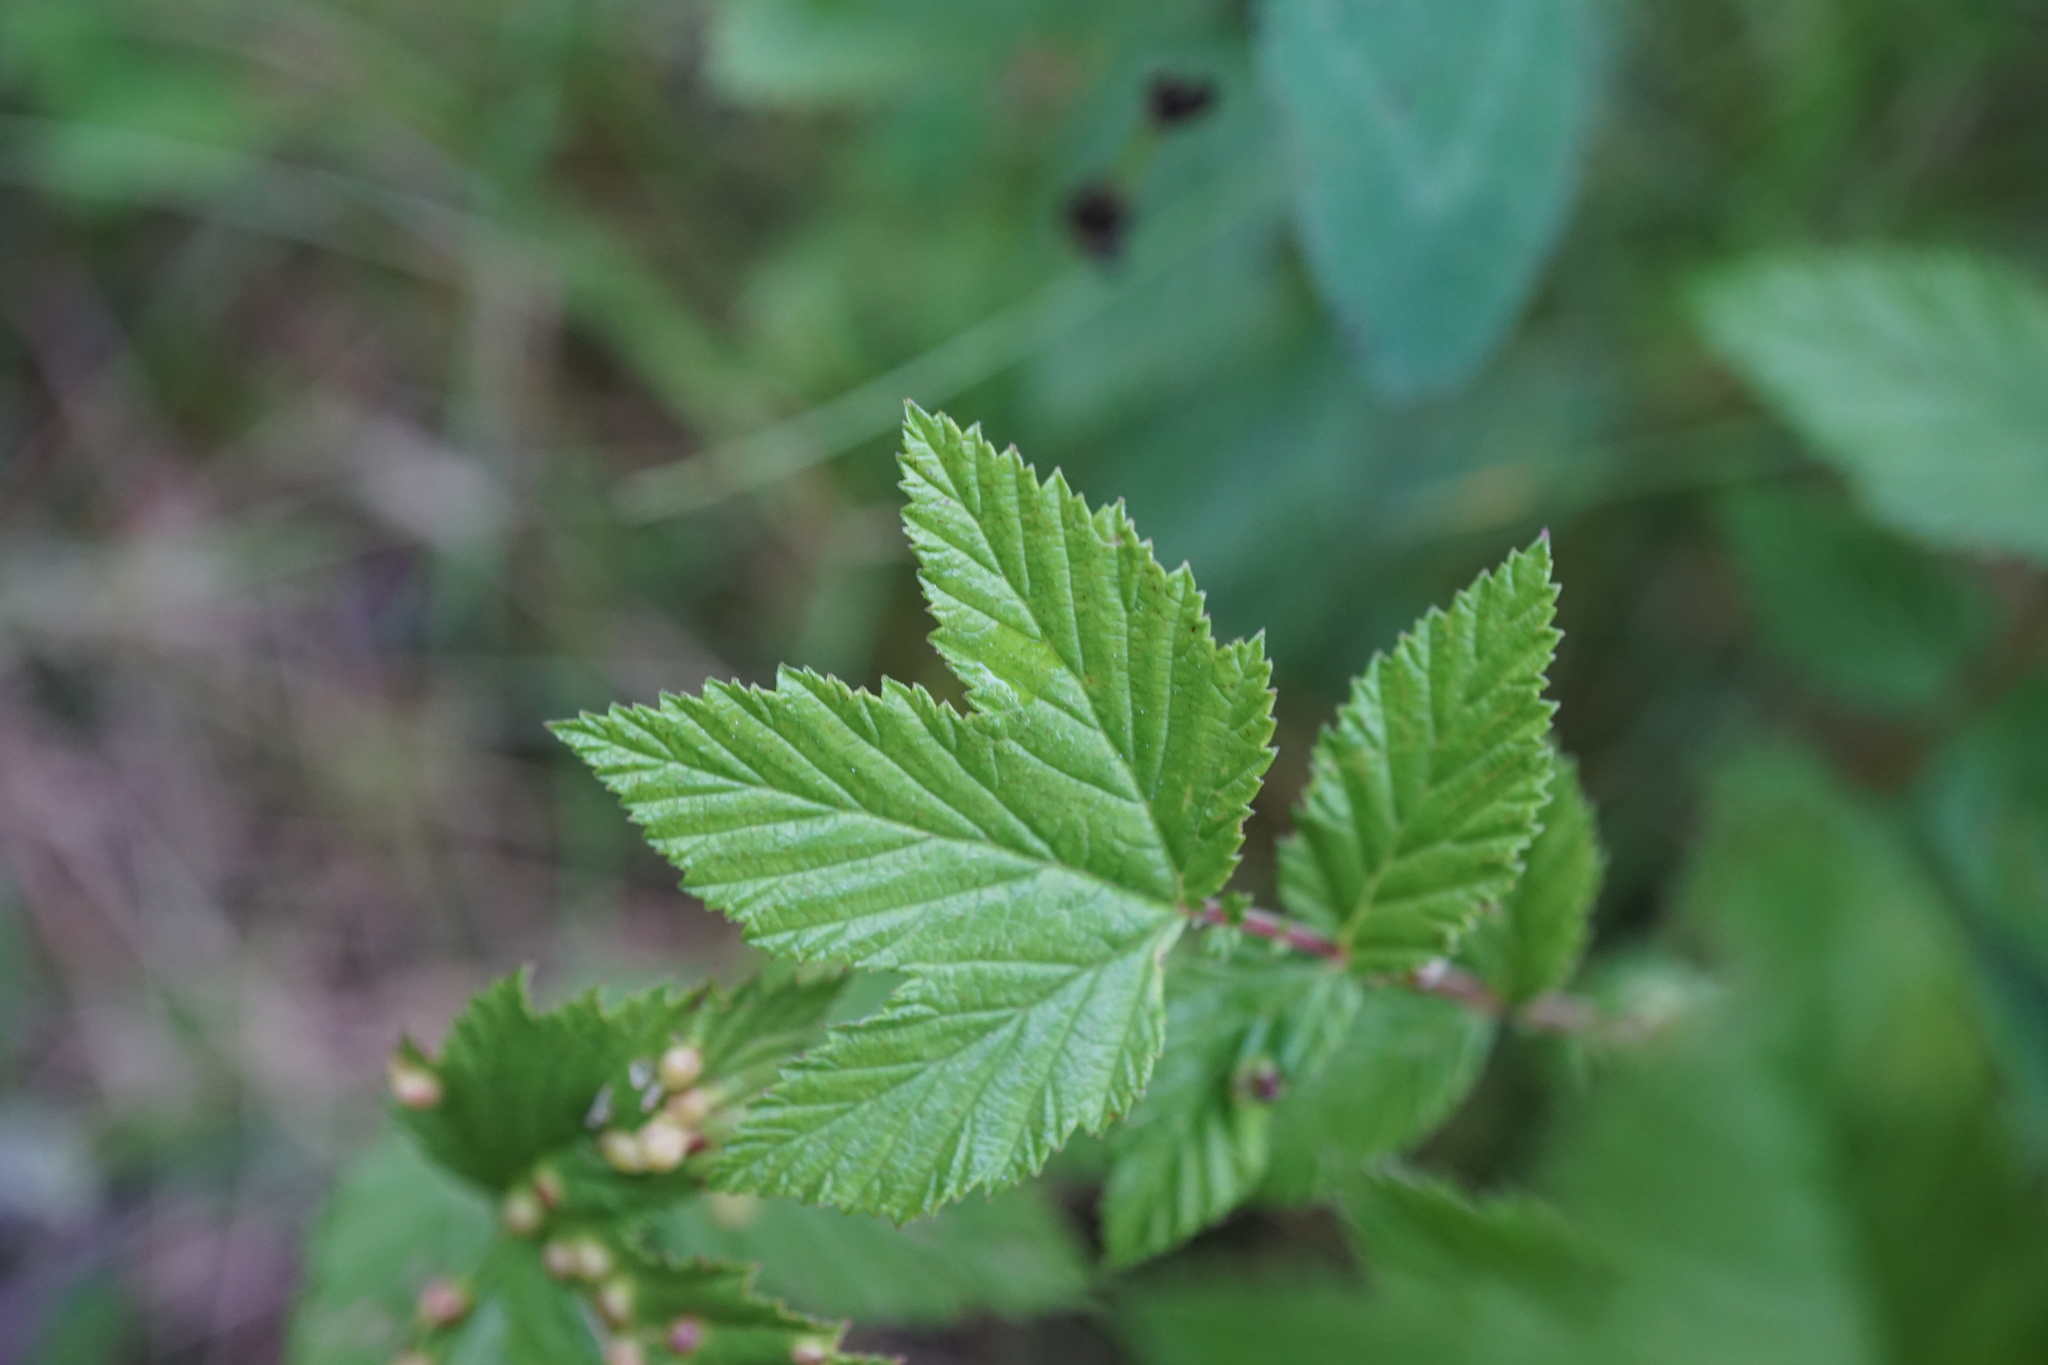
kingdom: Plantae
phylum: Tracheophyta
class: Magnoliopsida
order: Rosales
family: Rosaceae
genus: Filipendula
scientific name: Filipendula ulmaria
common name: Meadowsweet
